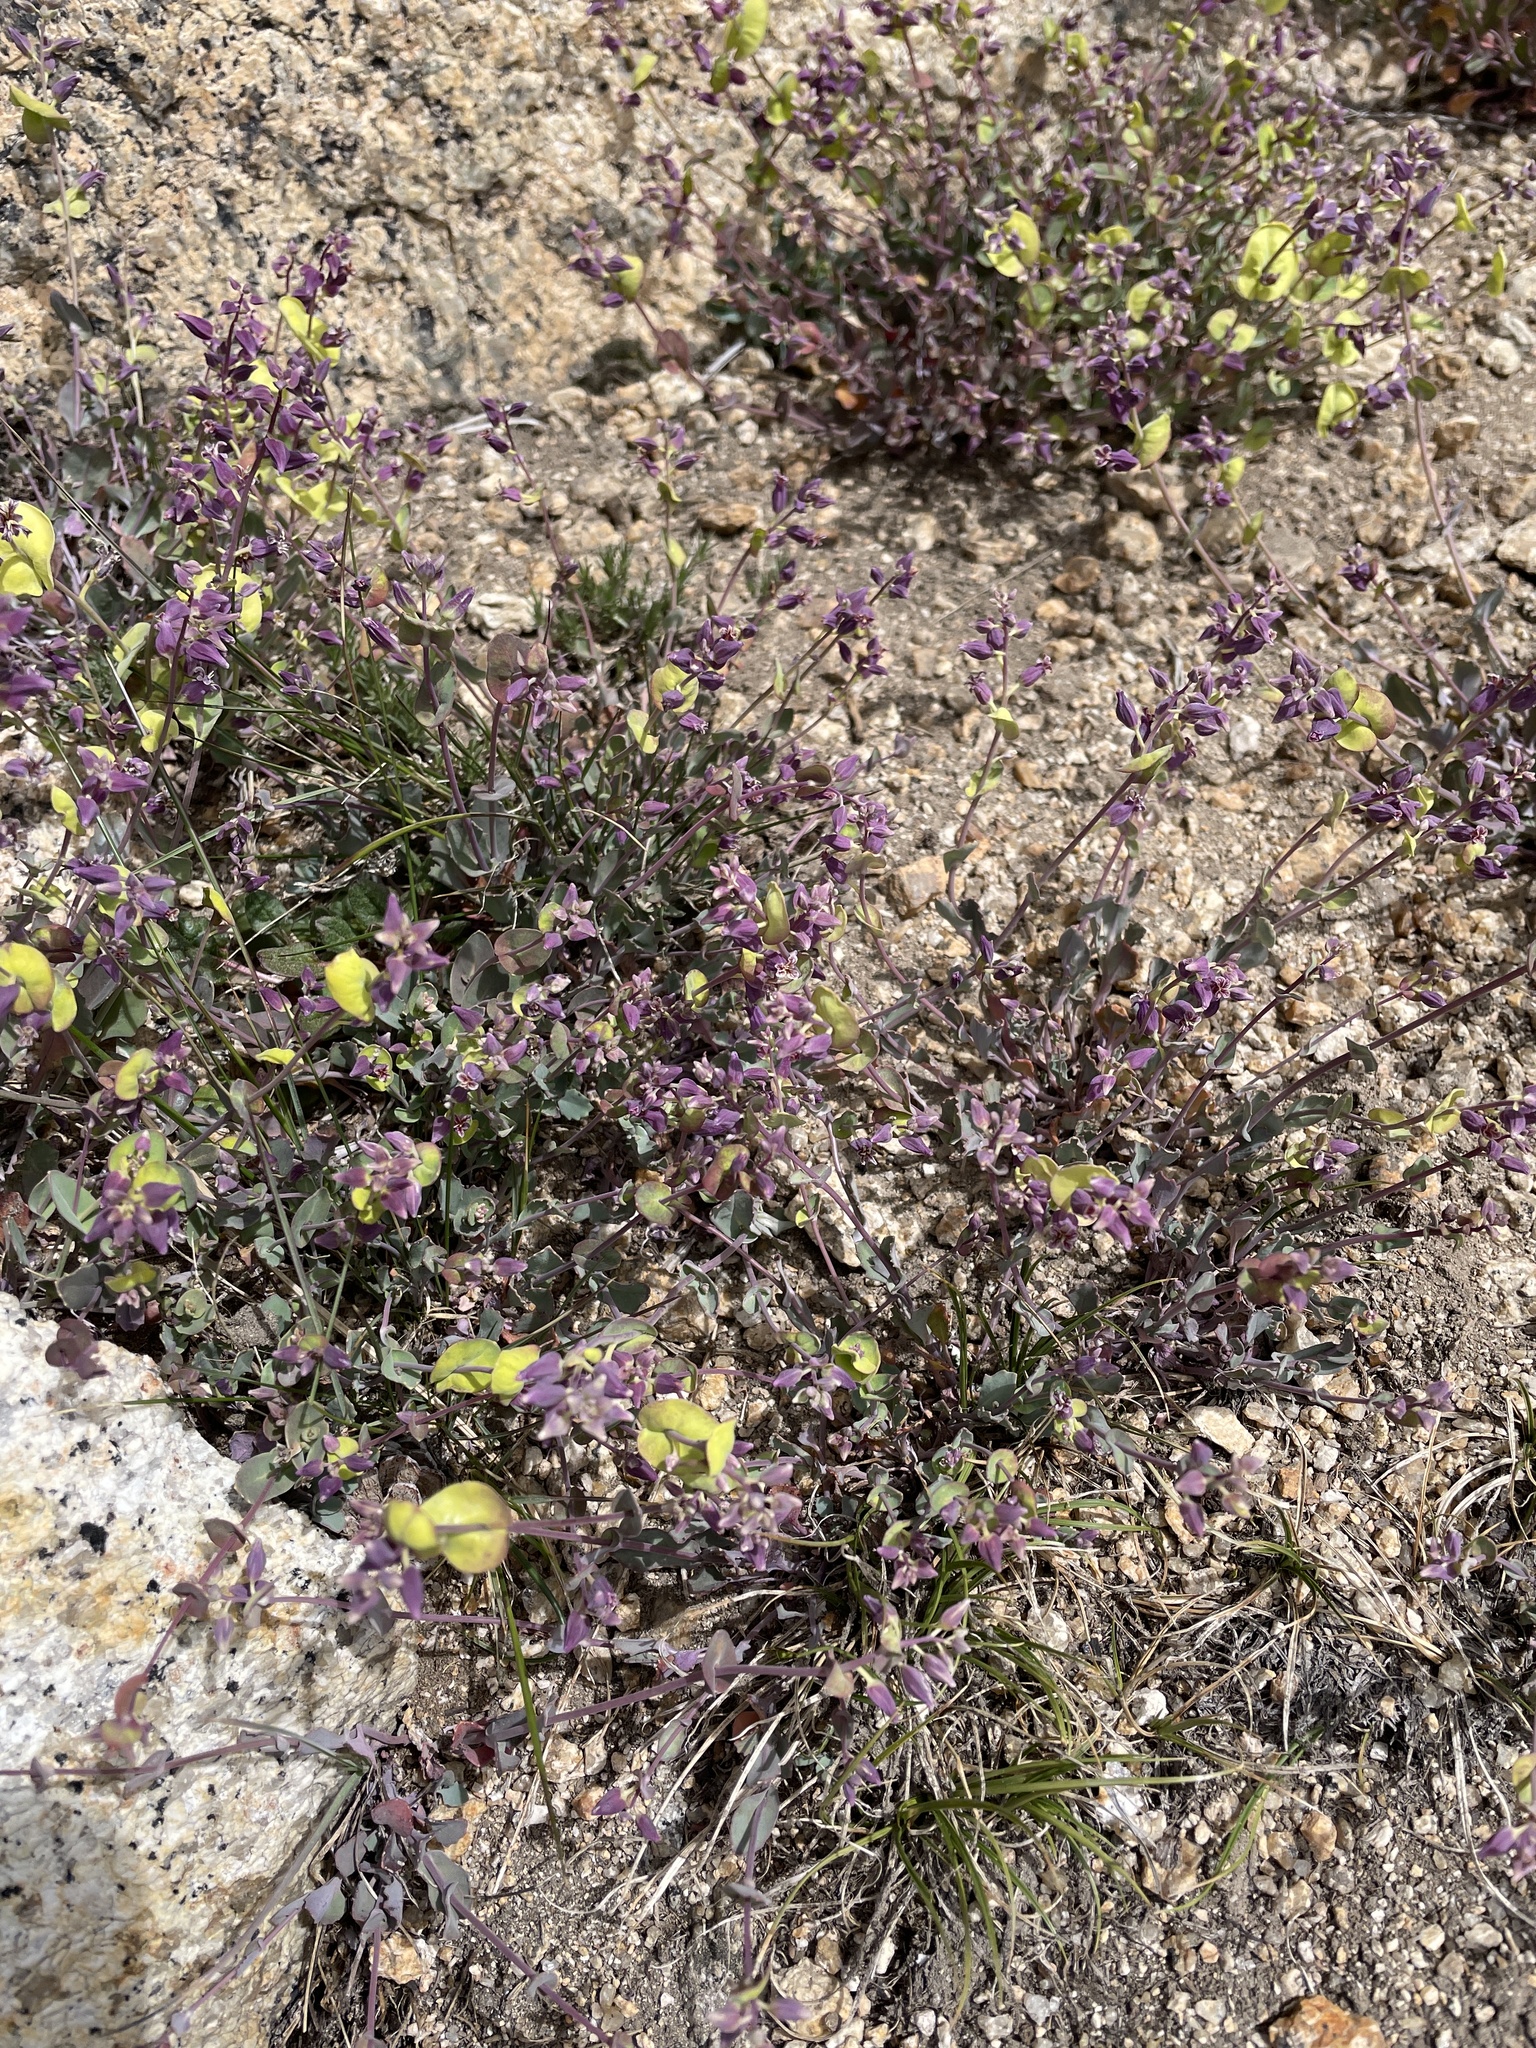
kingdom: Plantae
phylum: Tracheophyta
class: Magnoliopsida
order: Brassicales
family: Brassicaceae
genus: Streptanthus
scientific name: Streptanthus tortuosus
